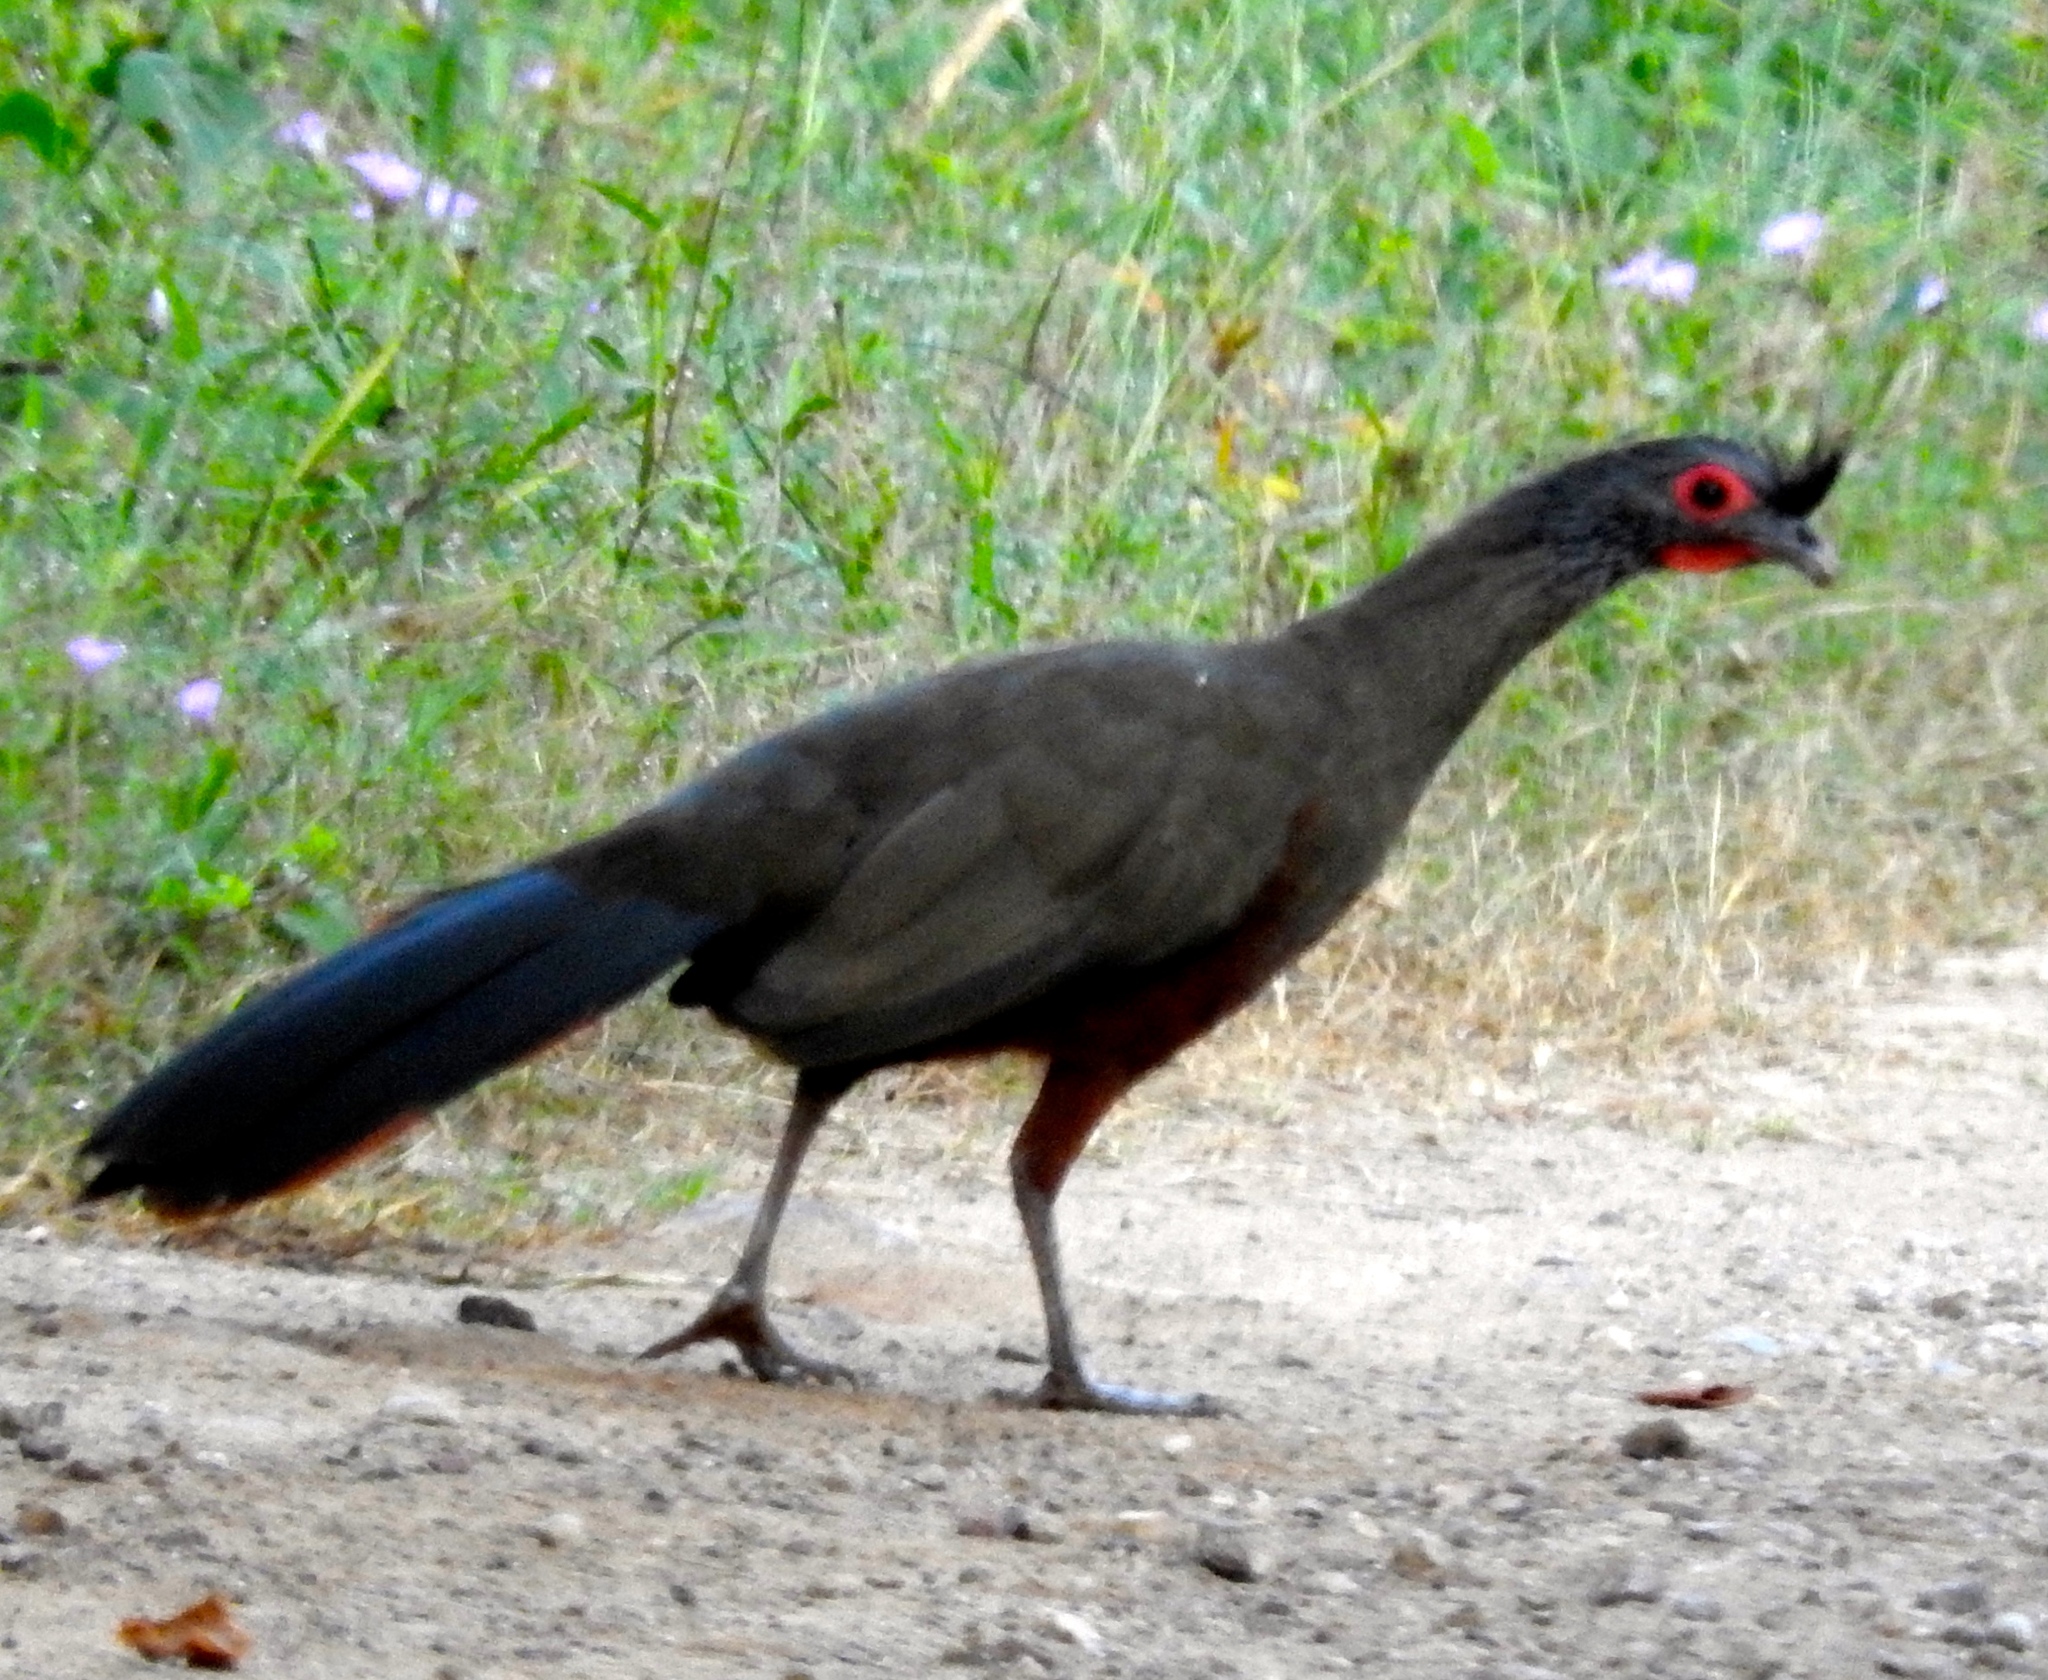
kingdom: Animalia
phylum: Chordata
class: Aves
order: Galliformes
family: Cracidae
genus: Ortalis
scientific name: Ortalis wagleri
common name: Rufous-bellied chachalaca
